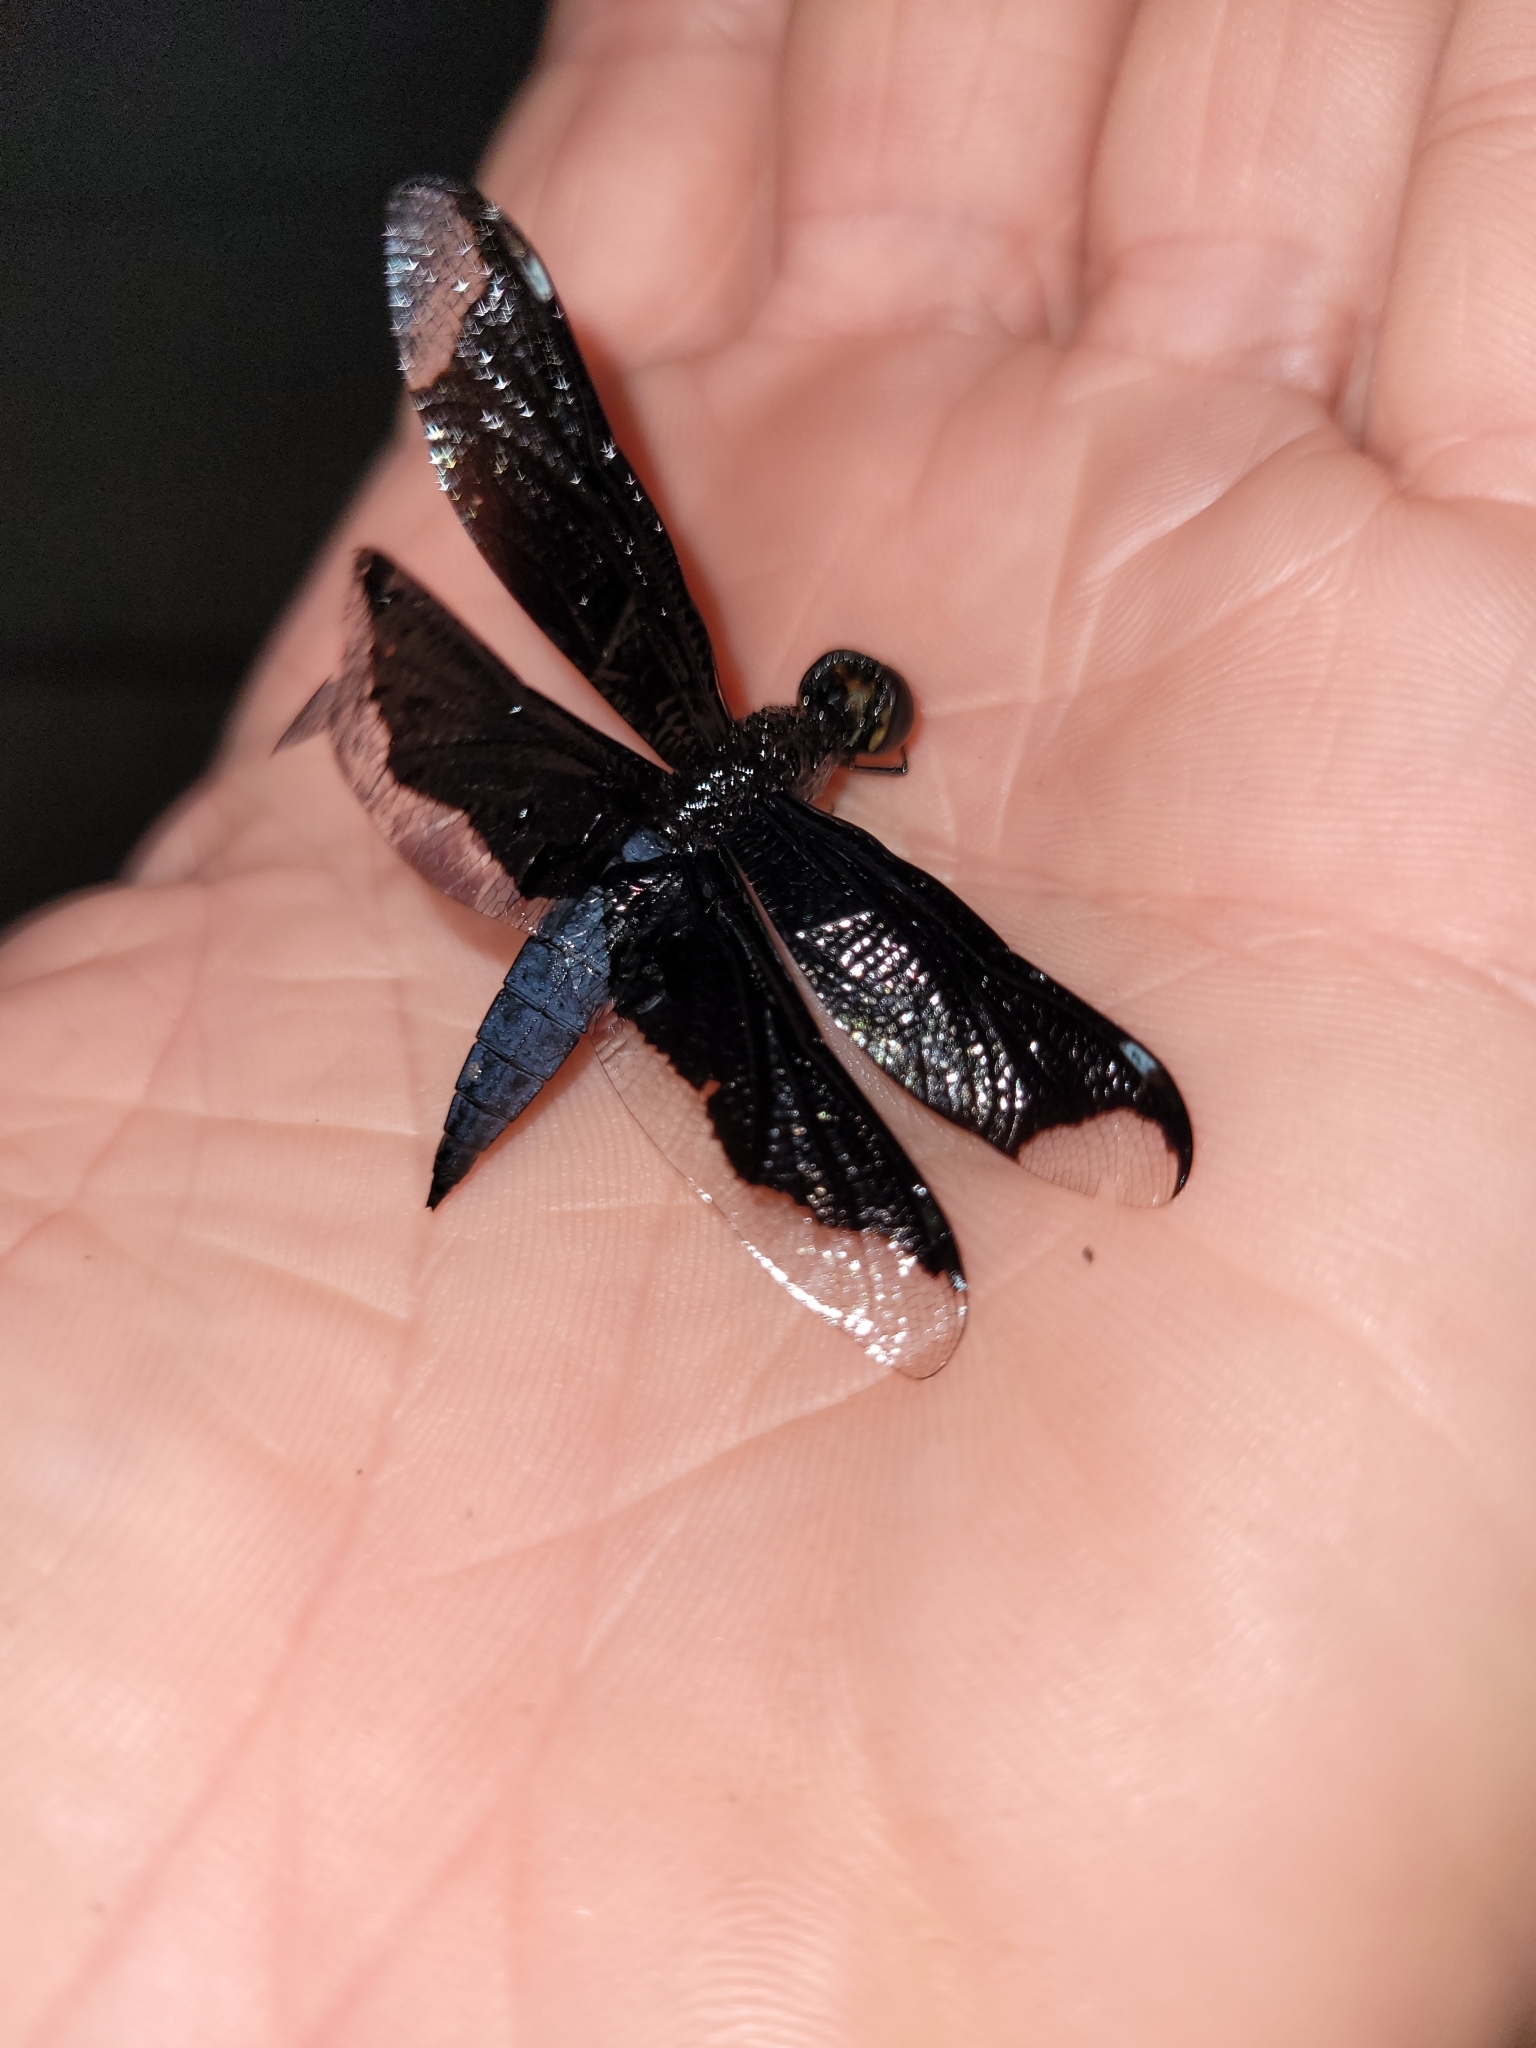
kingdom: Animalia
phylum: Arthropoda
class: Insecta
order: Odonata
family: Libellulidae
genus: Palpopleura
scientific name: Palpopleura lucia
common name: Lucia widow
